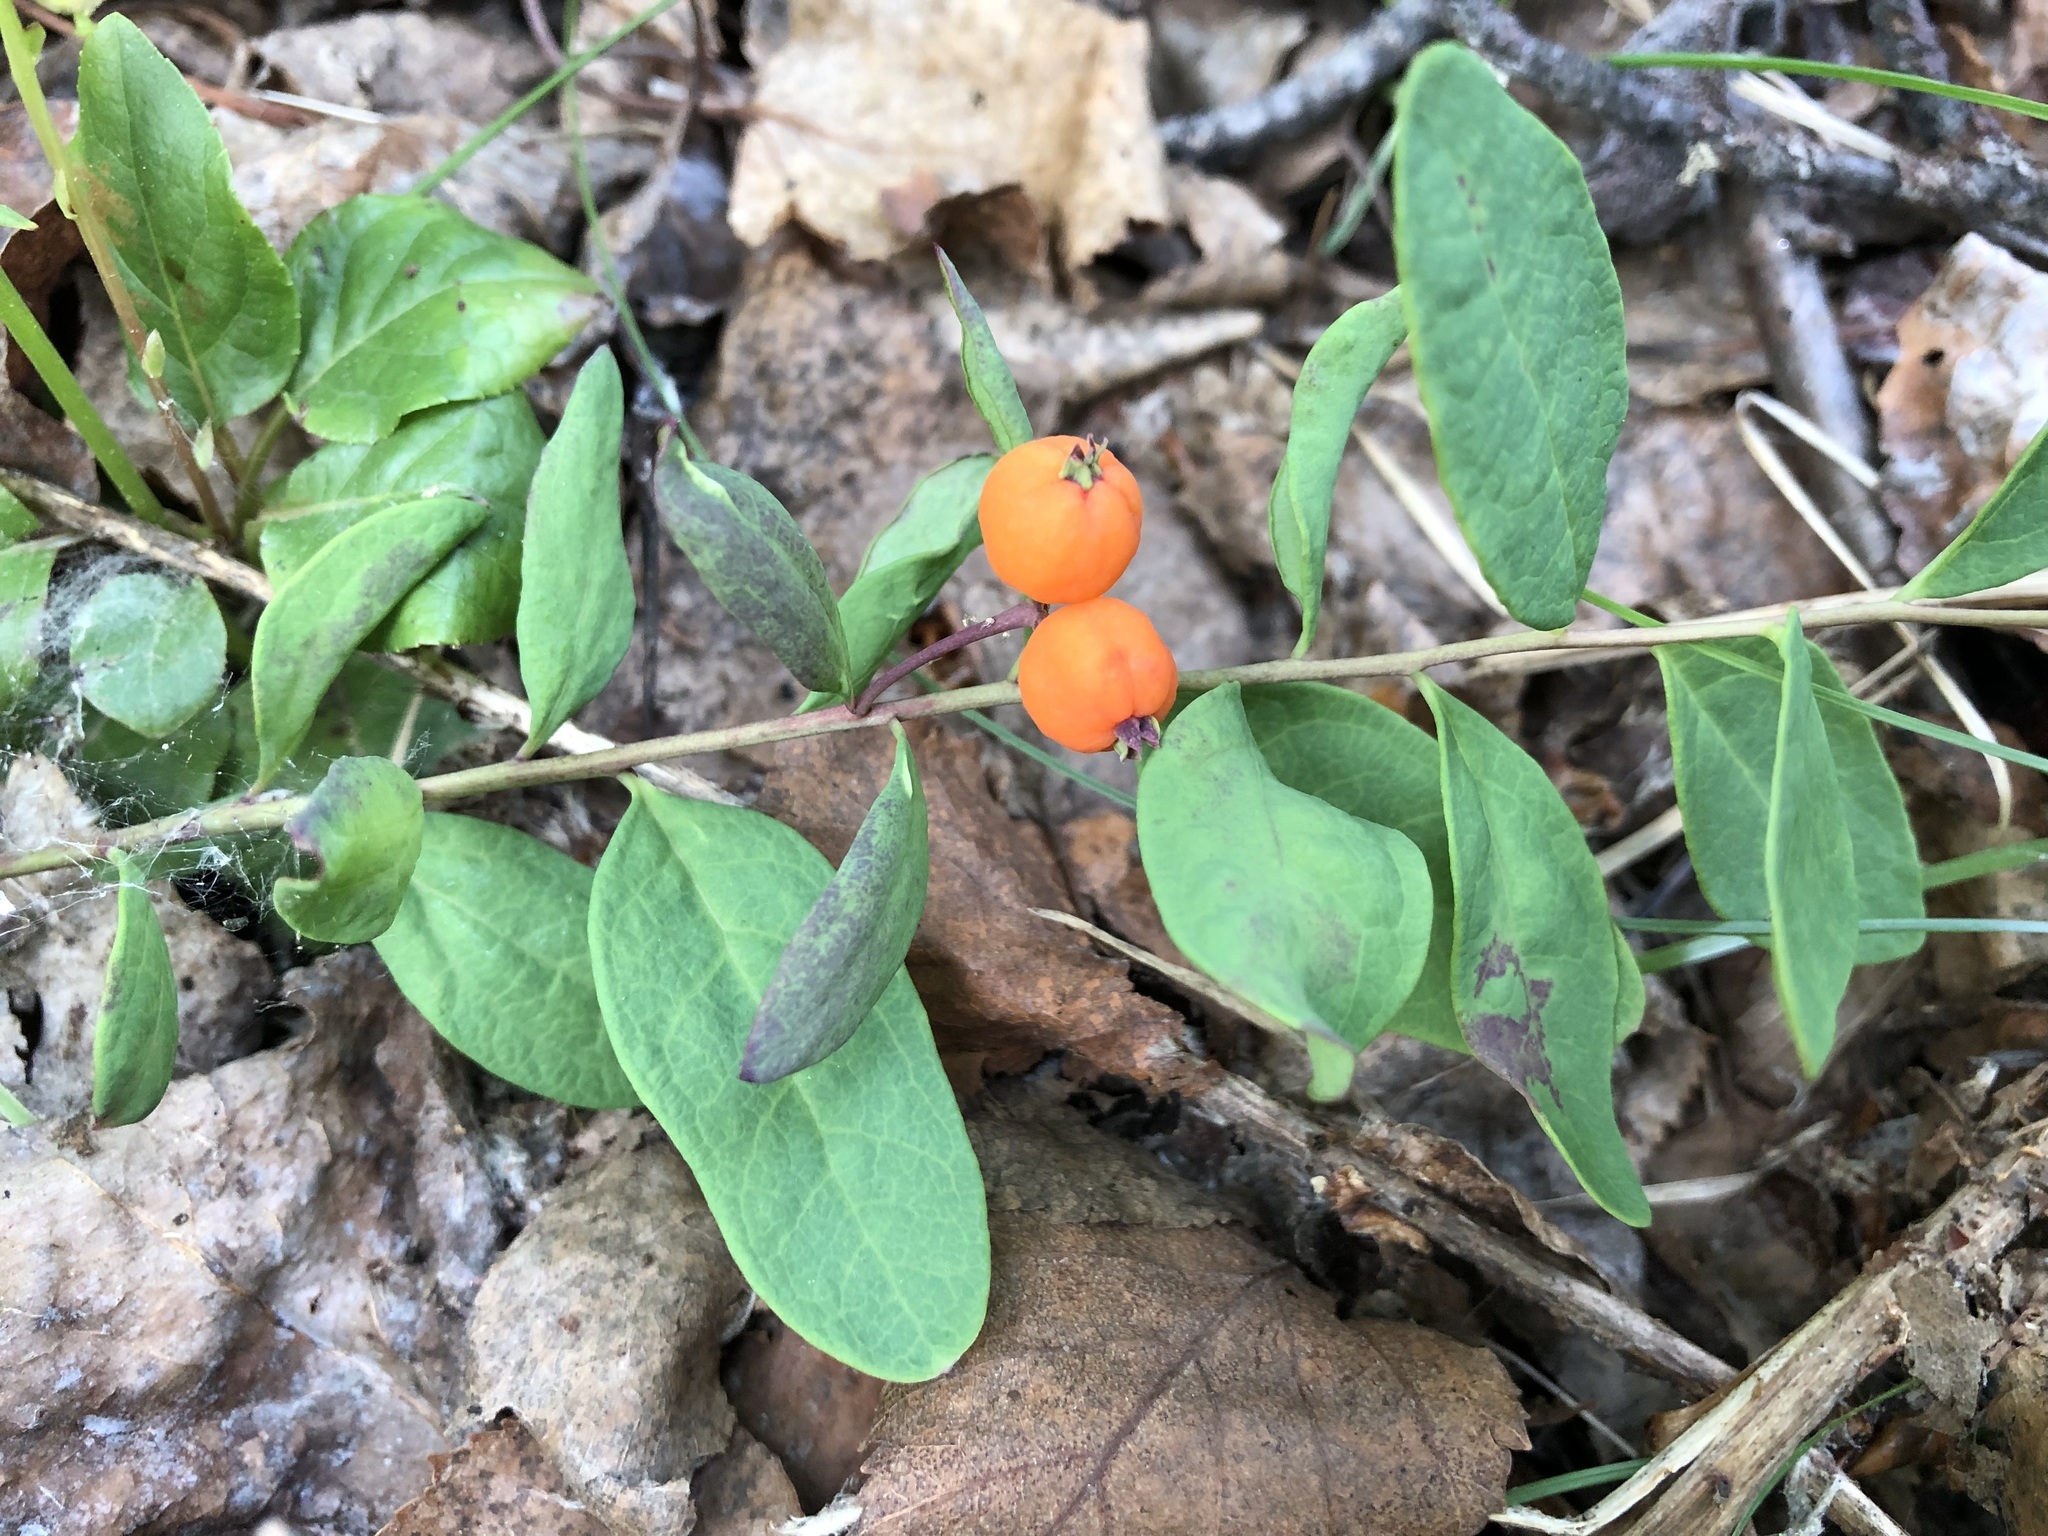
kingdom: Plantae
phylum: Tracheophyta
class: Magnoliopsida
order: Santalales
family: Comandraceae
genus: Geocaulon
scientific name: Geocaulon lividum
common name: Earthberry
